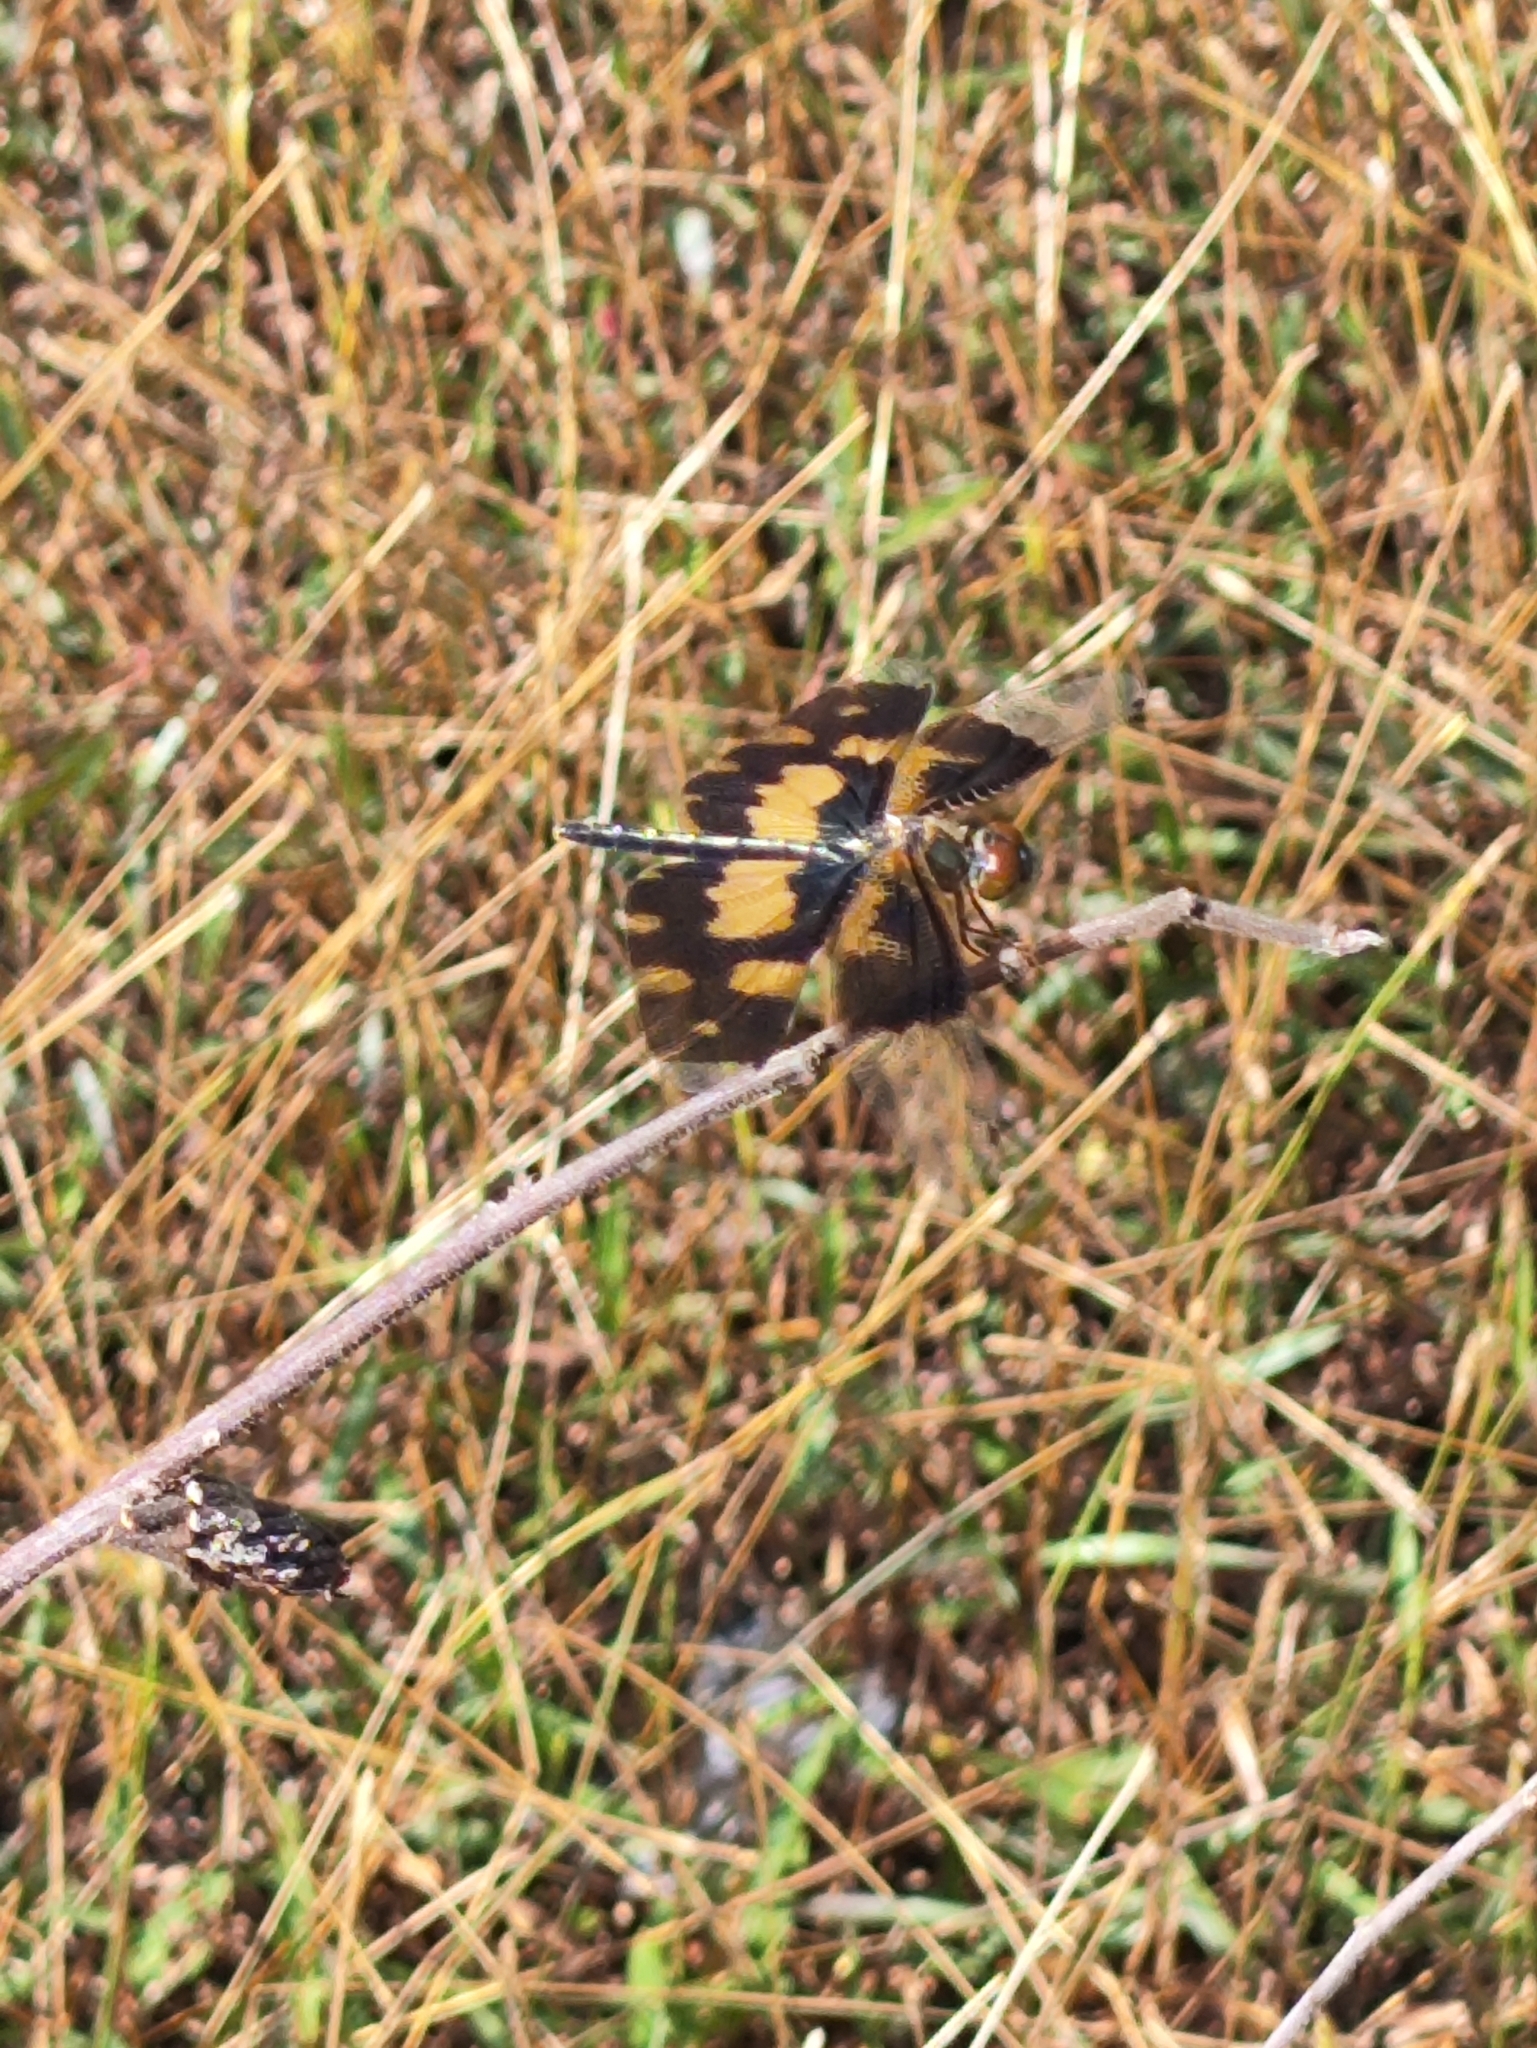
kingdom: Animalia
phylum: Arthropoda
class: Insecta
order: Odonata
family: Libellulidae
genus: Rhyothemis
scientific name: Rhyothemis variegata
